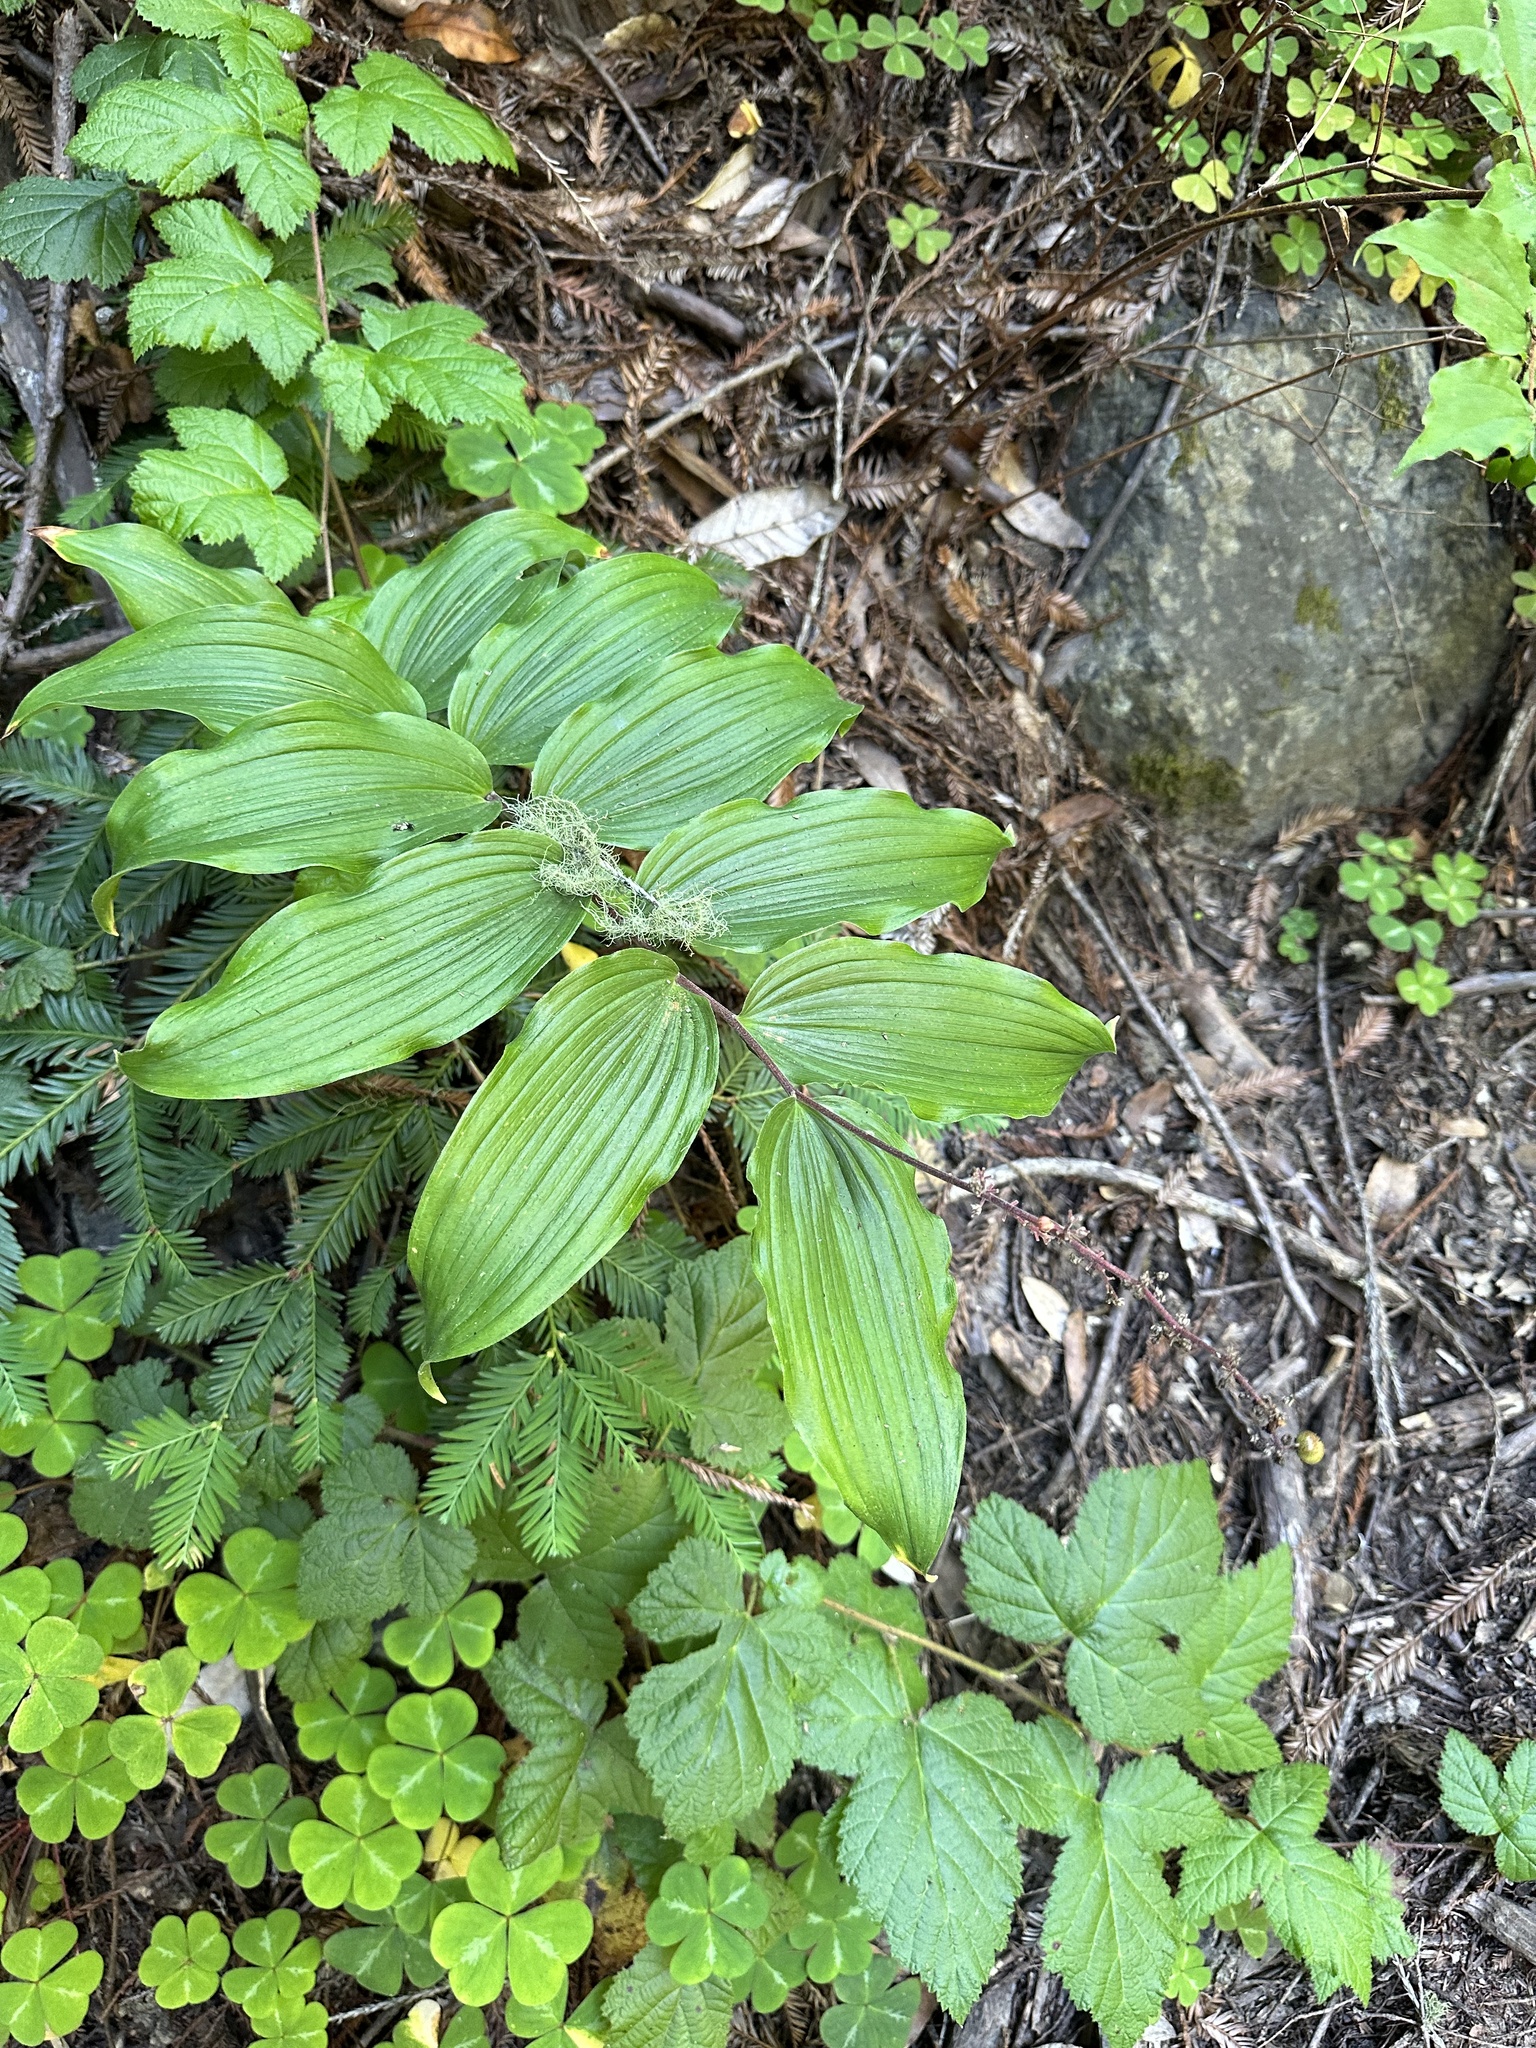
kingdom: Plantae
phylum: Tracheophyta
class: Liliopsida
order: Asparagales
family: Asparagaceae
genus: Maianthemum
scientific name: Maianthemum racemosum
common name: False spikenard
